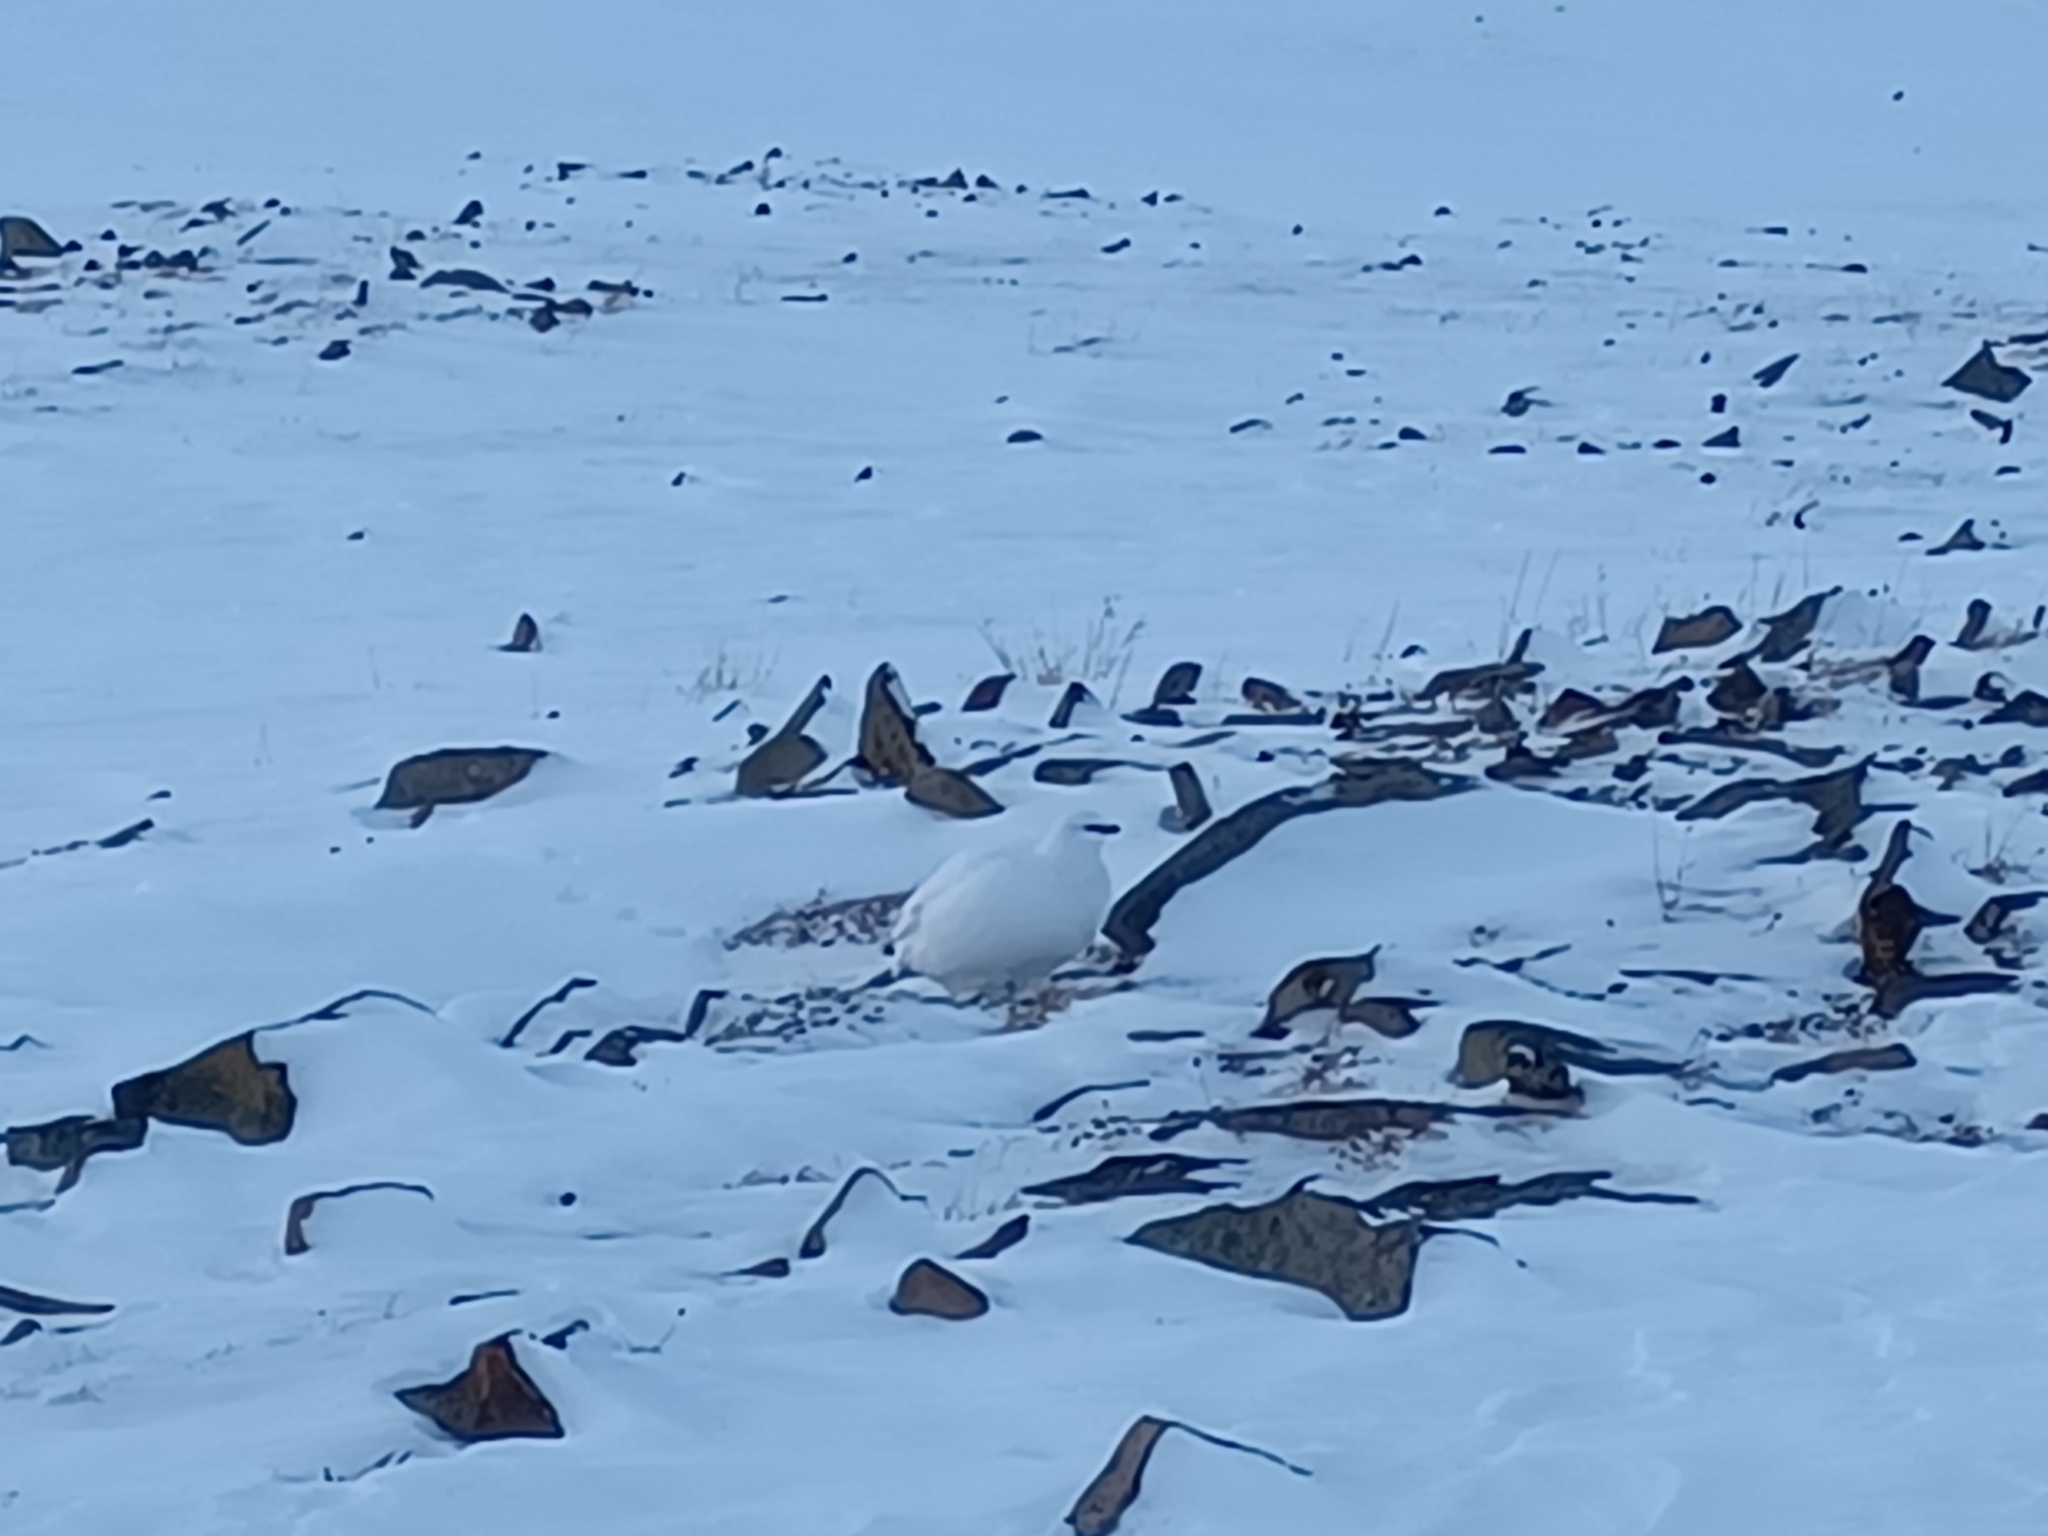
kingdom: Animalia
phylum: Chordata
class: Aves
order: Galliformes
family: Phasianidae
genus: Lagopus
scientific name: Lagopus muta
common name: Rock ptarmigan
